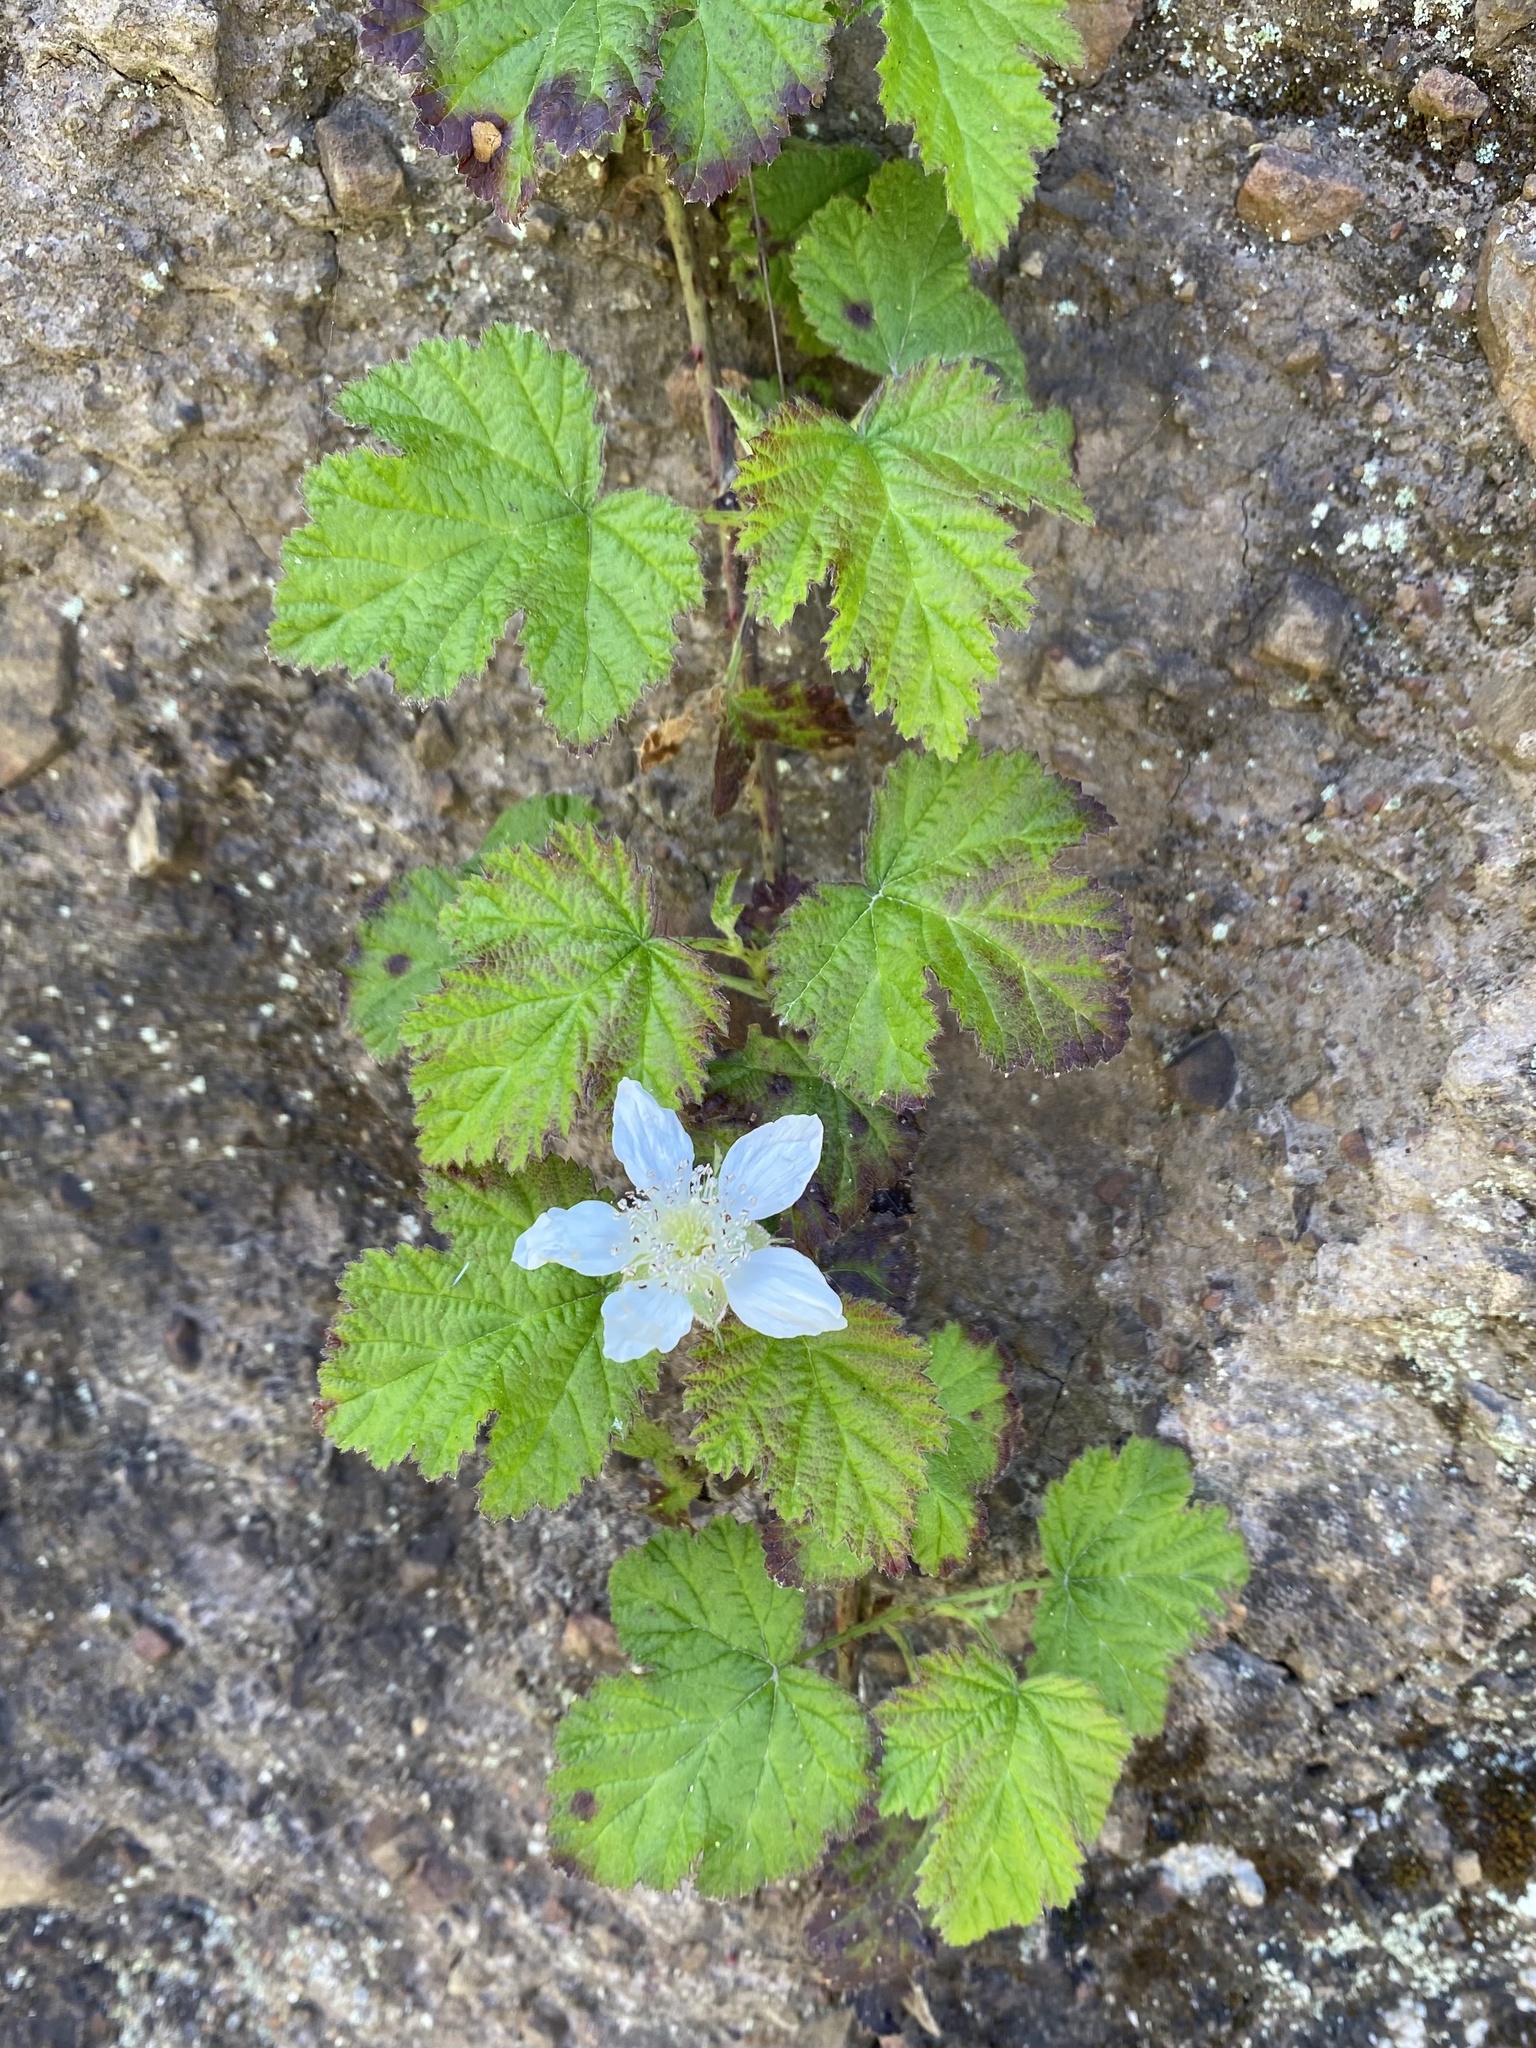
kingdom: Plantae
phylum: Tracheophyta
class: Magnoliopsida
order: Rosales
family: Rosaceae
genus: Rubus
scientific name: Rubus ursinus
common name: Pacific blackberry
